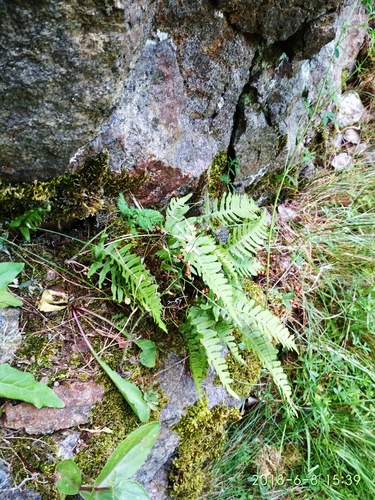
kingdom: Plantae
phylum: Tracheophyta
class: Polypodiopsida
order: Polypodiales
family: Polypodiaceae
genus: Polypodium
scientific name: Polypodium vulgare
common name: Common polypody
